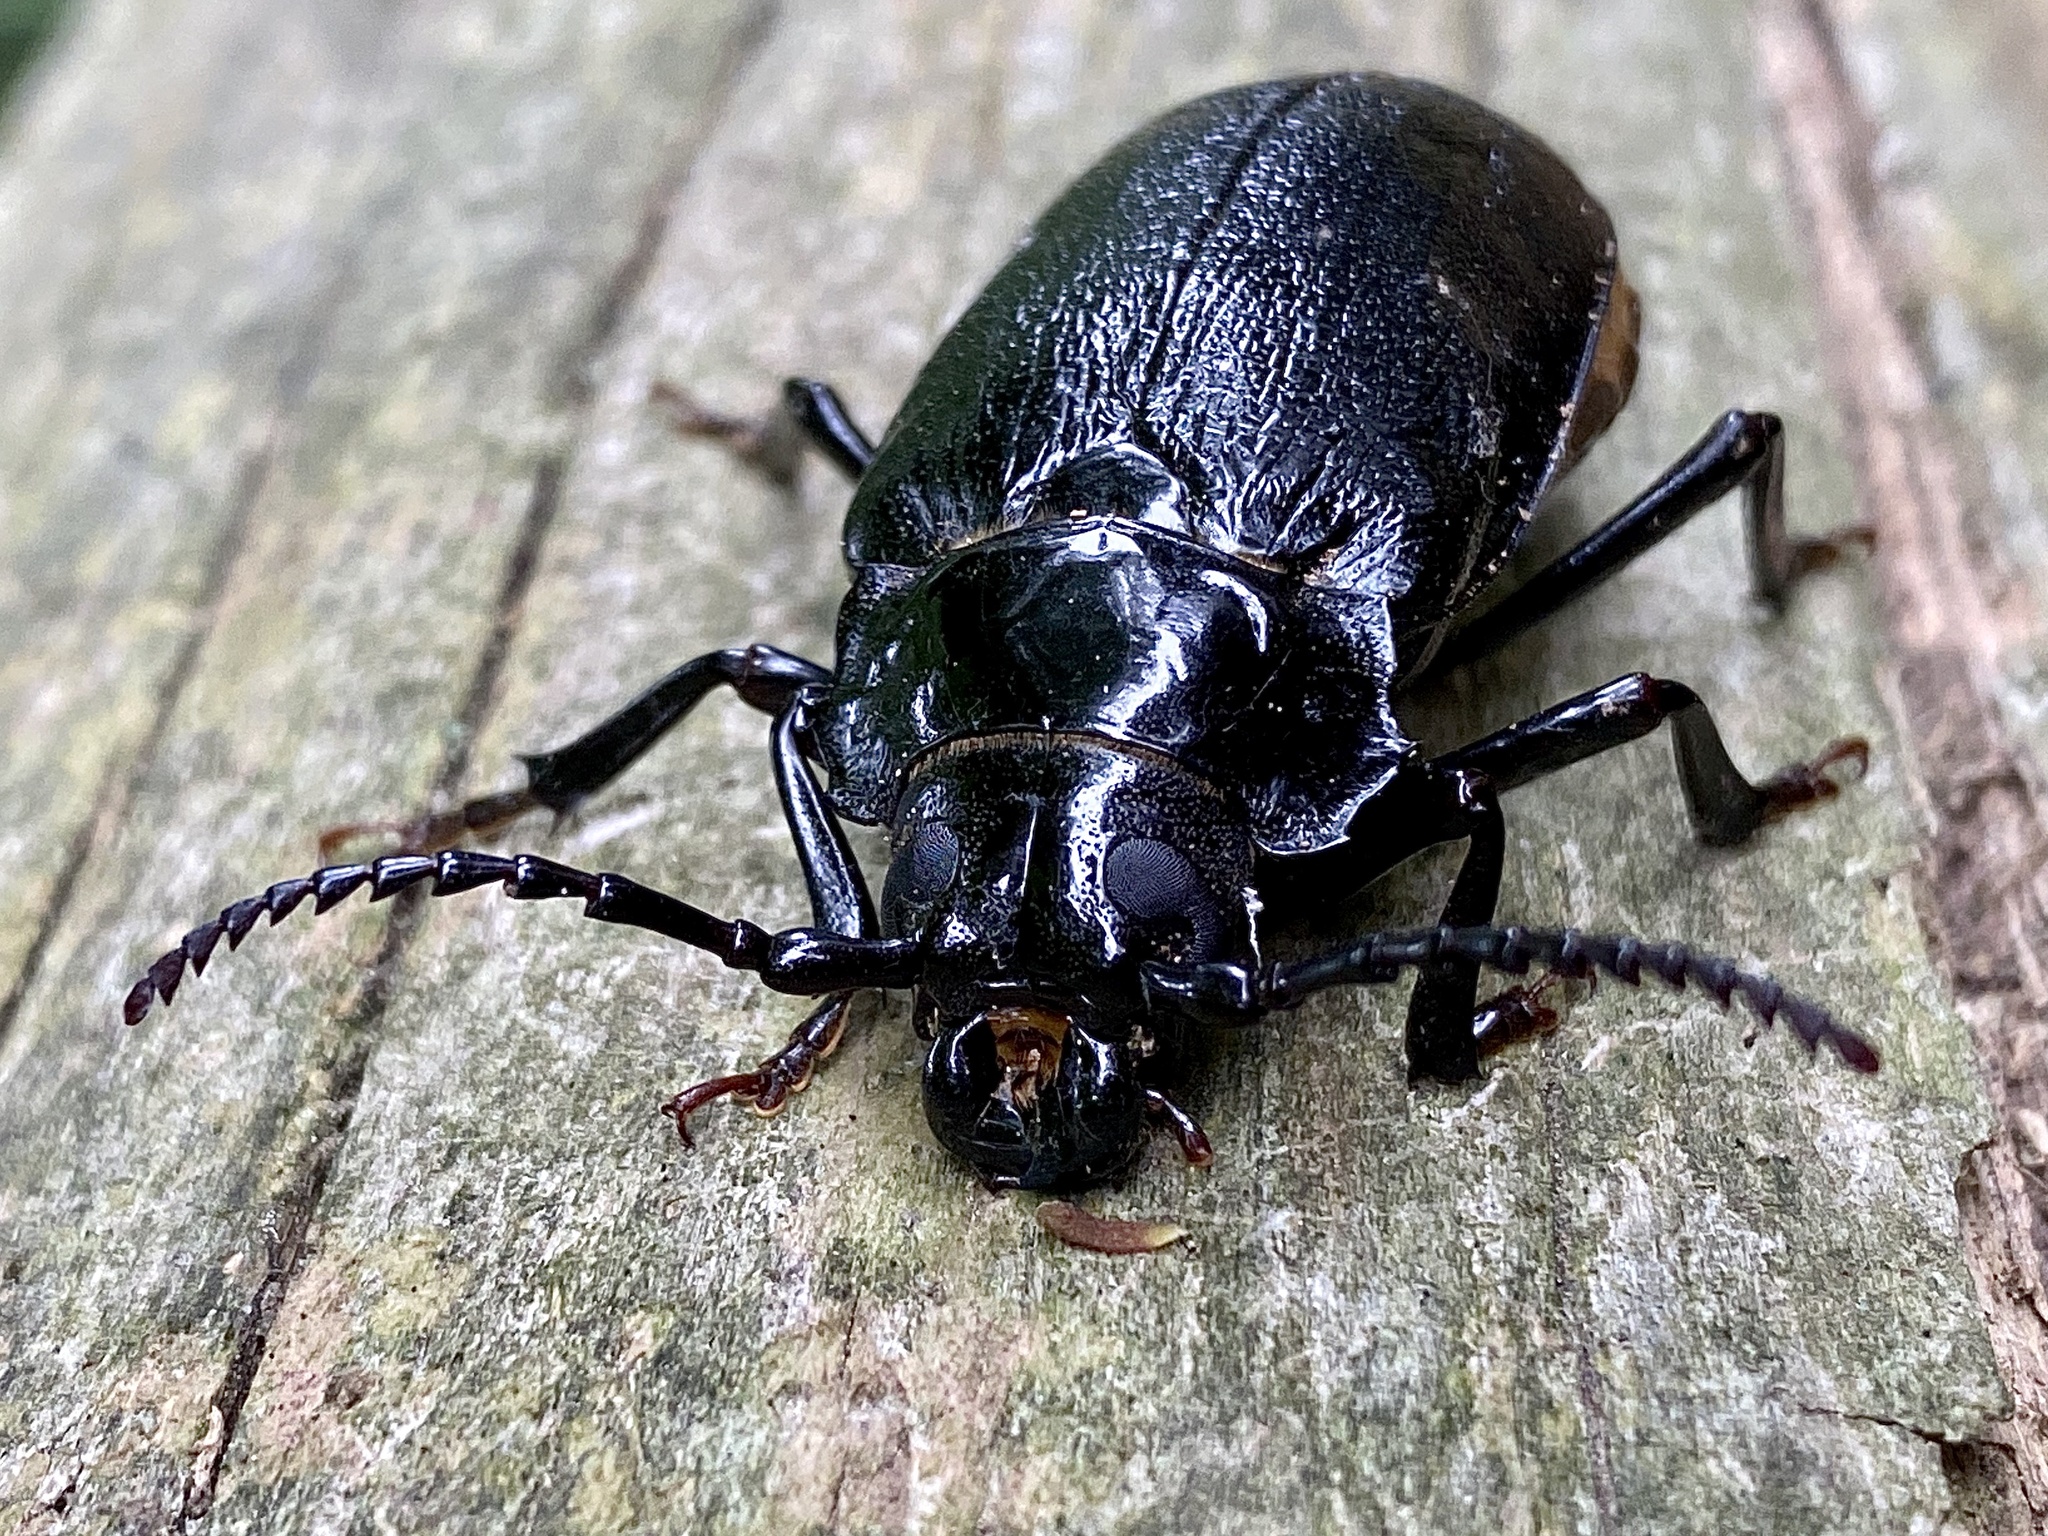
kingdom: Animalia
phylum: Arthropoda
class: Insecta
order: Coleoptera
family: Cerambycidae
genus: Prionus
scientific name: Prionus laticollis
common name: Broad necked prionus
